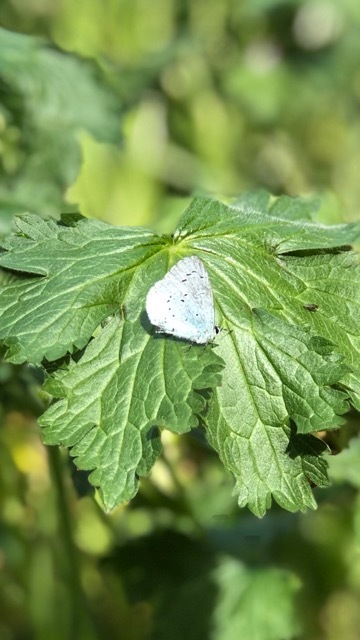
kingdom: Animalia
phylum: Arthropoda
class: Insecta
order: Lepidoptera
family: Lycaenidae
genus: Celastrina
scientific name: Celastrina argiolus
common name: Holly blue
